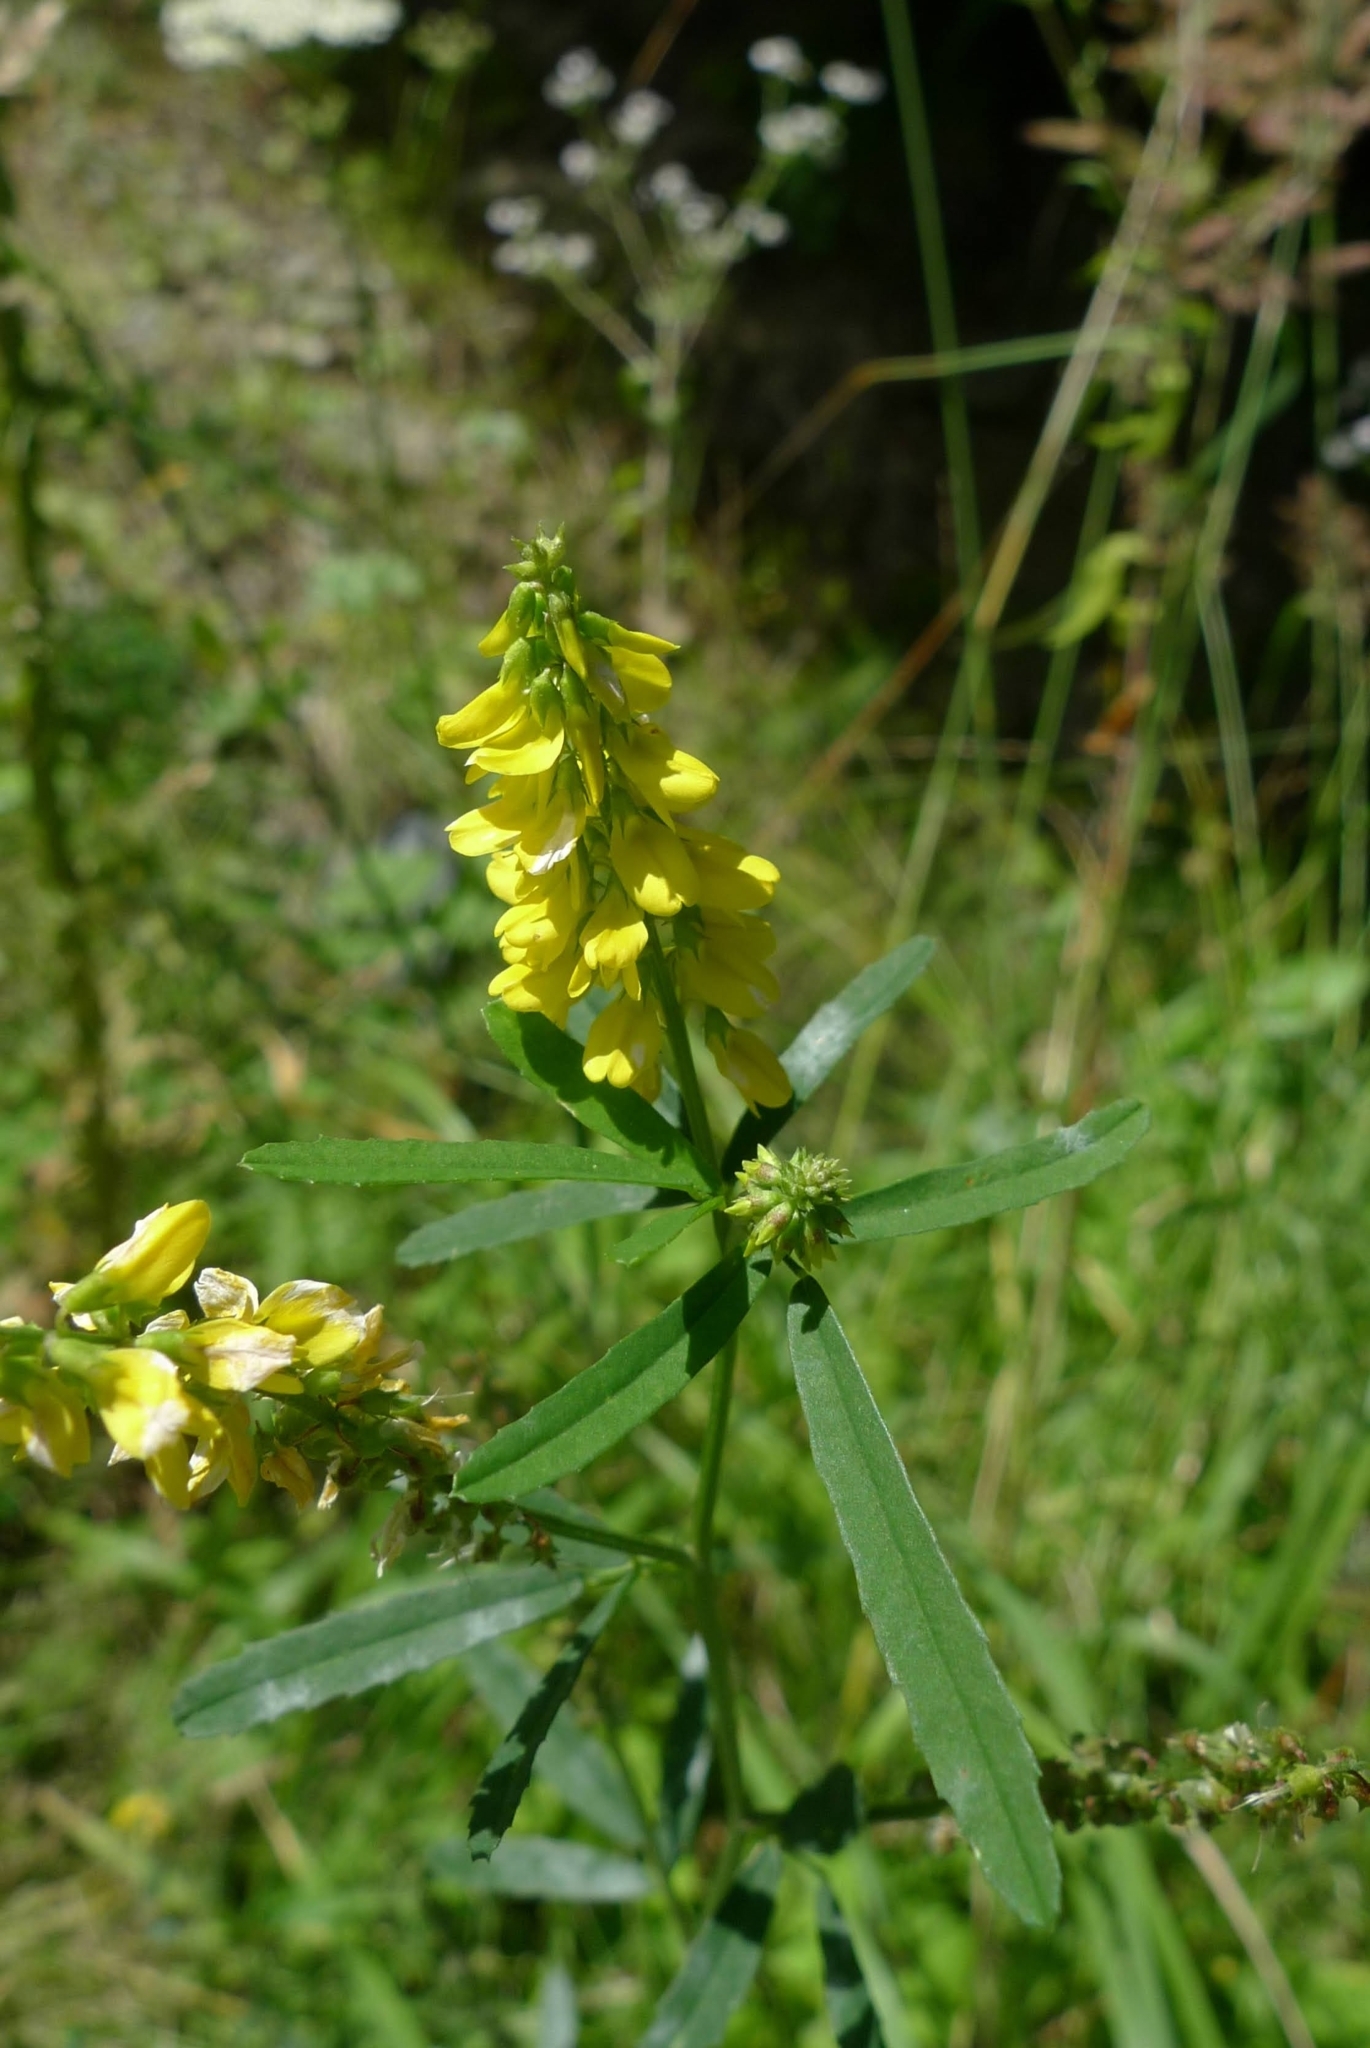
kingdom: Plantae
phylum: Tracheophyta
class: Magnoliopsida
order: Fabales
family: Fabaceae
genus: Melilotus
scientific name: Melilotus officinalis
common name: Sweetclover
